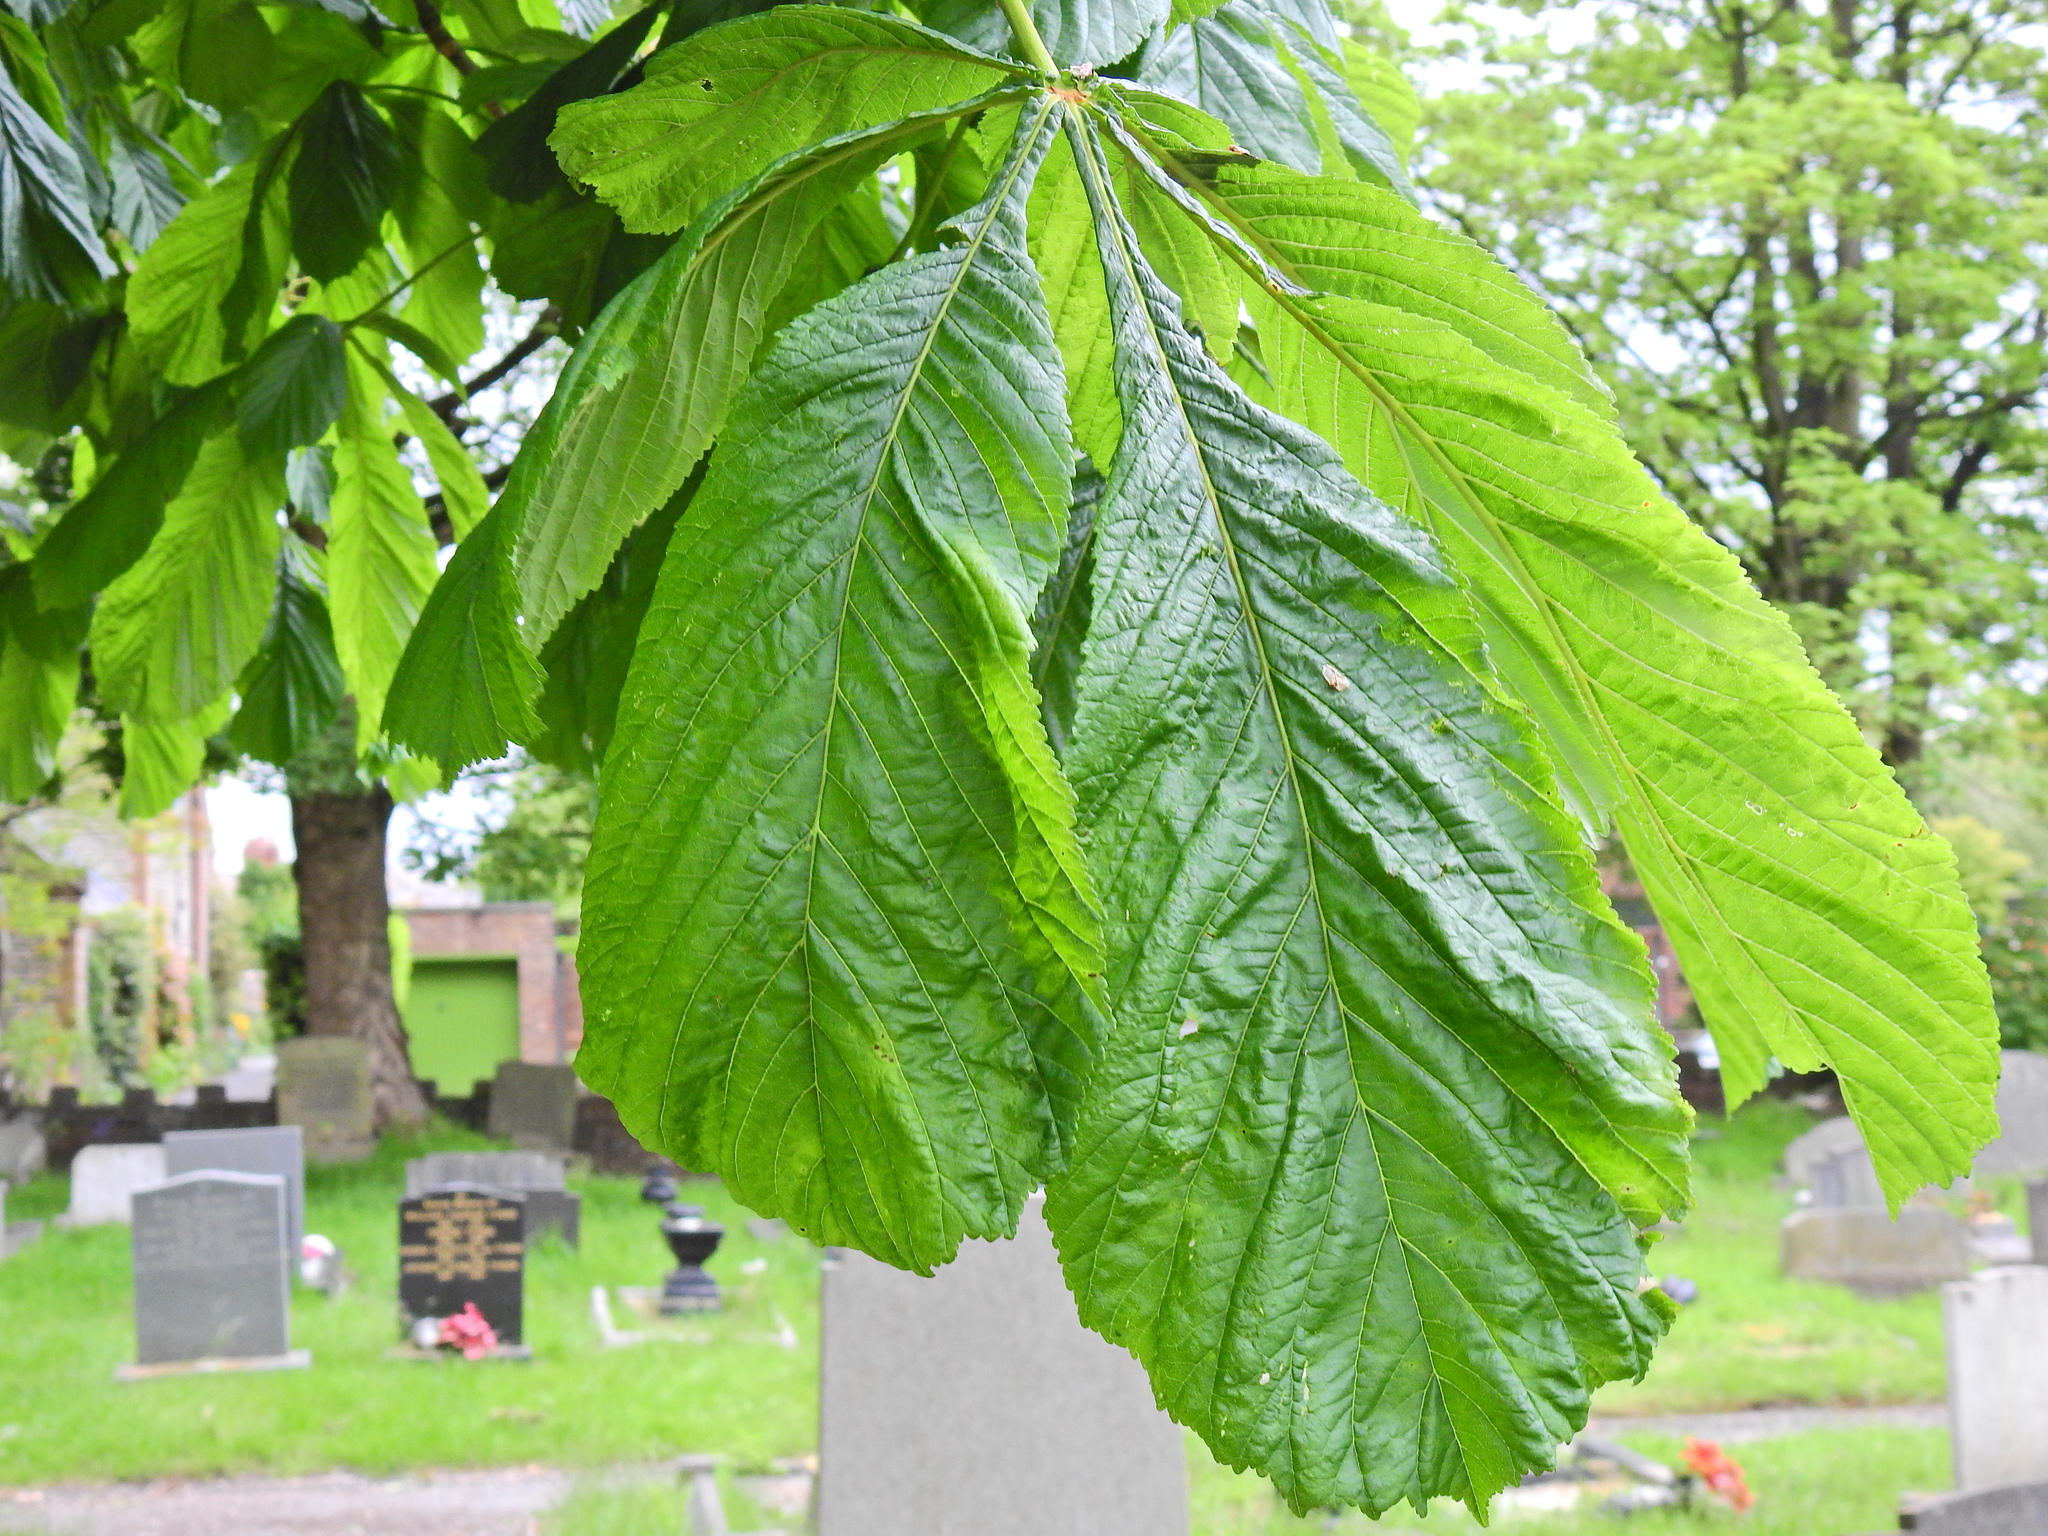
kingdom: Plantae
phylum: Tracheophyta
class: Magnoliopsida
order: Sapindales
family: Sapindaceae
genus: Aesculus
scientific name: Aesculus hippocastanum
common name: Horse-chestnut
